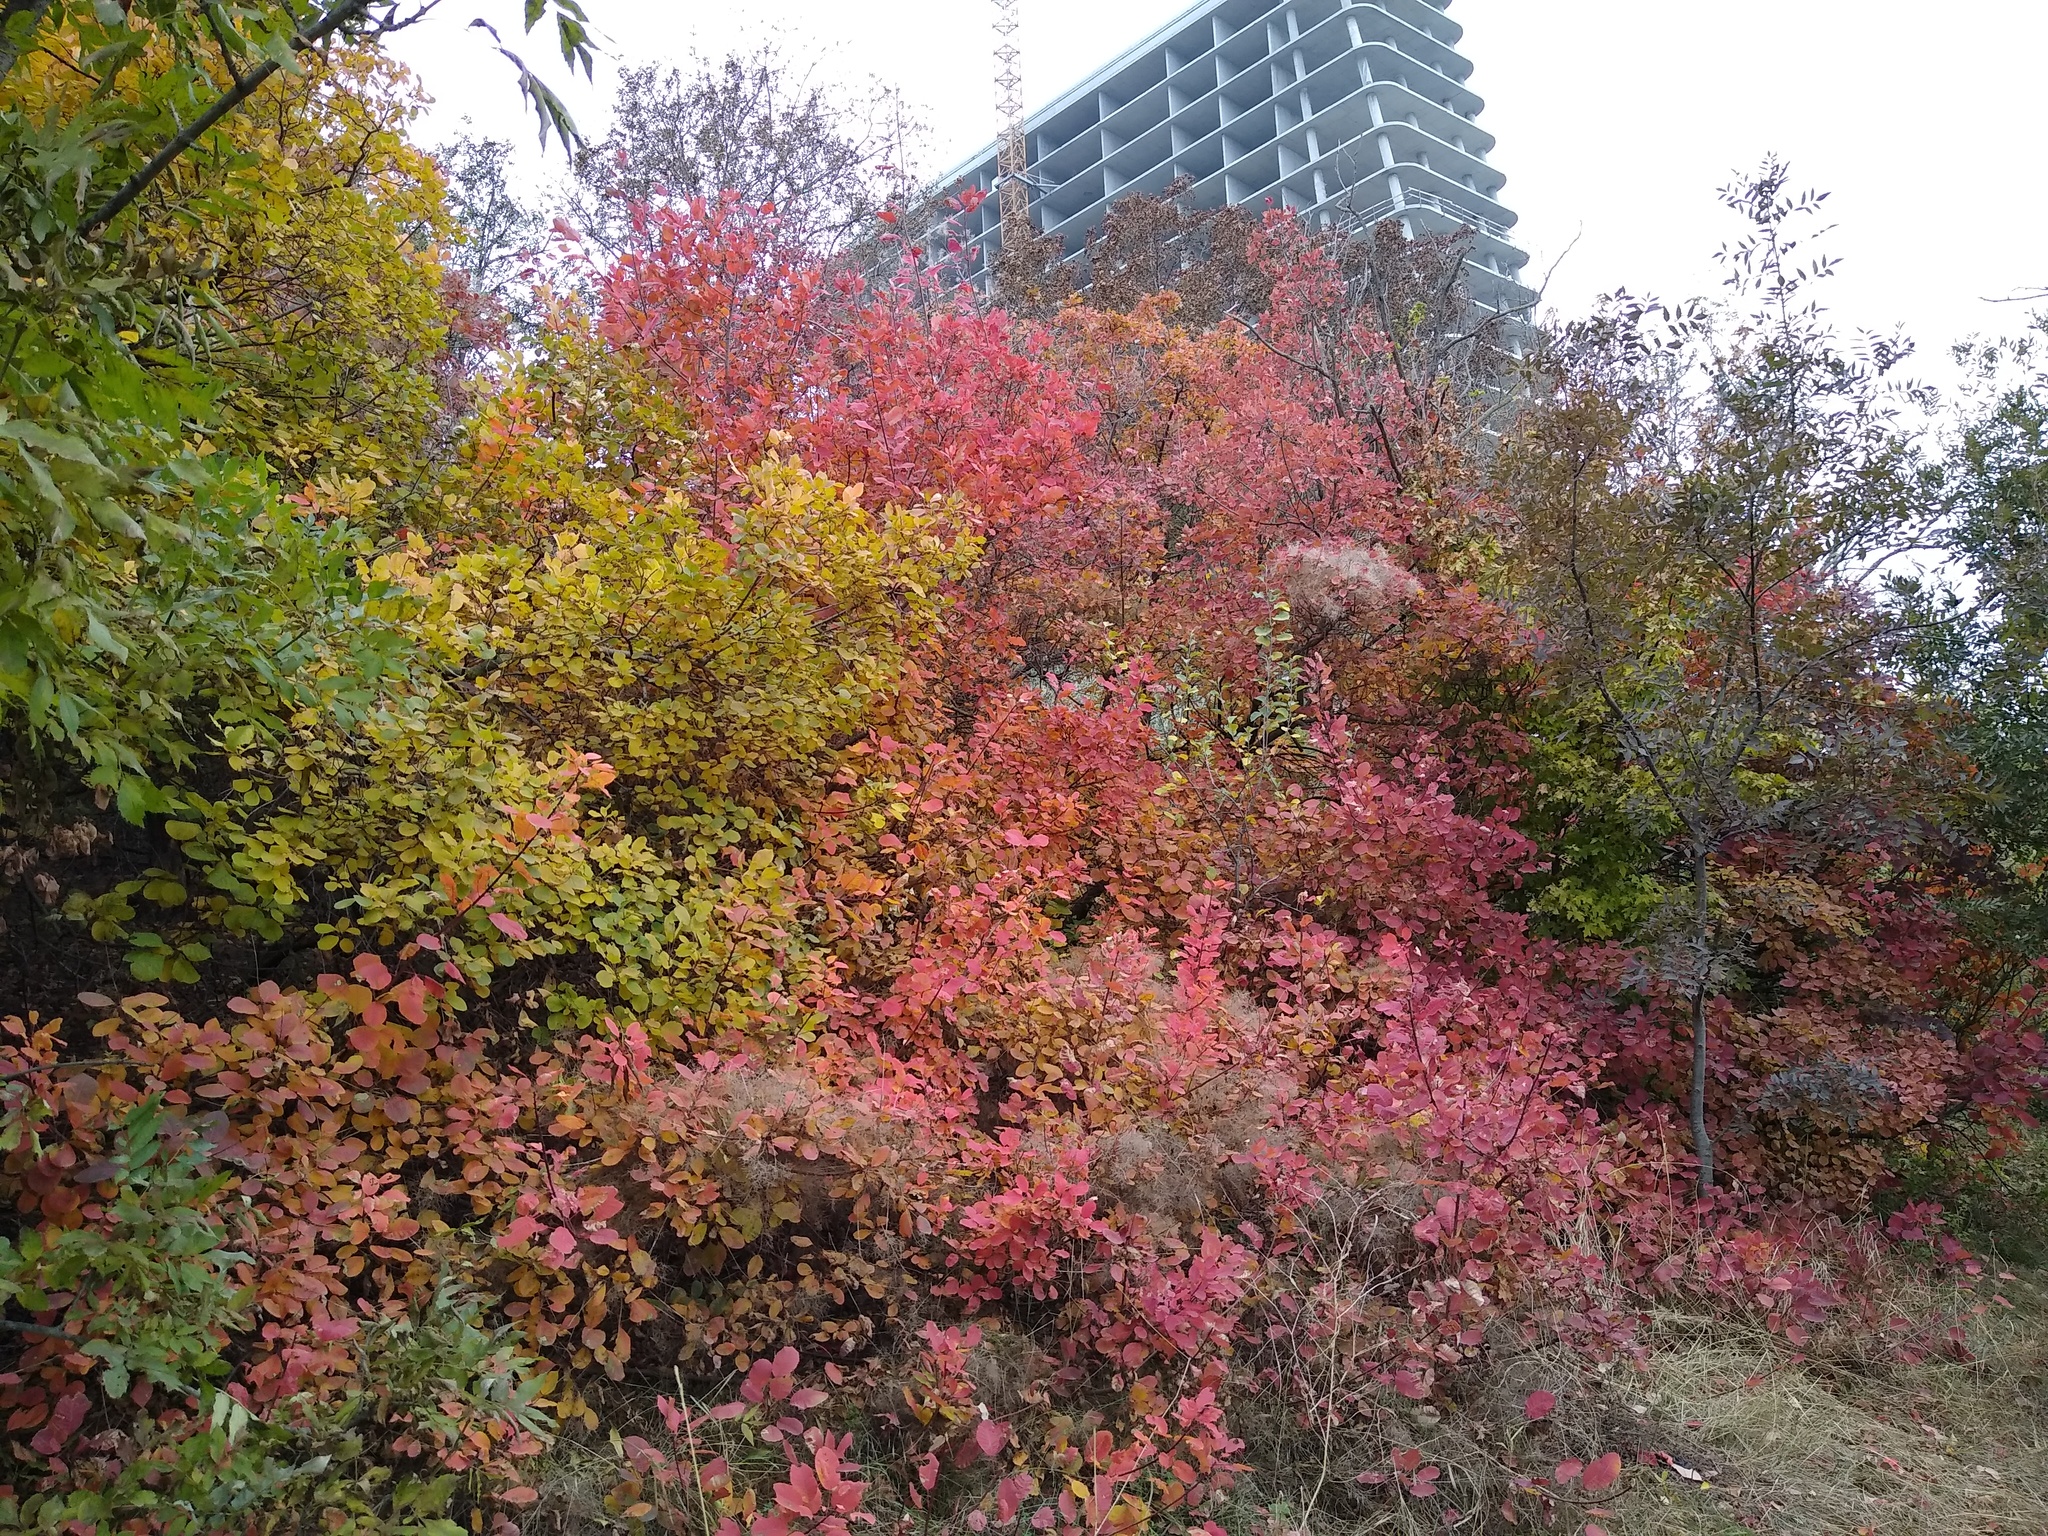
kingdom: Plantae
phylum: Tracheophyta
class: Magnoliopsida
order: Sapindales
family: Anacardiaceae
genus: Cotinus
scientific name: Cotinus coggygria
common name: Smoke-tree
